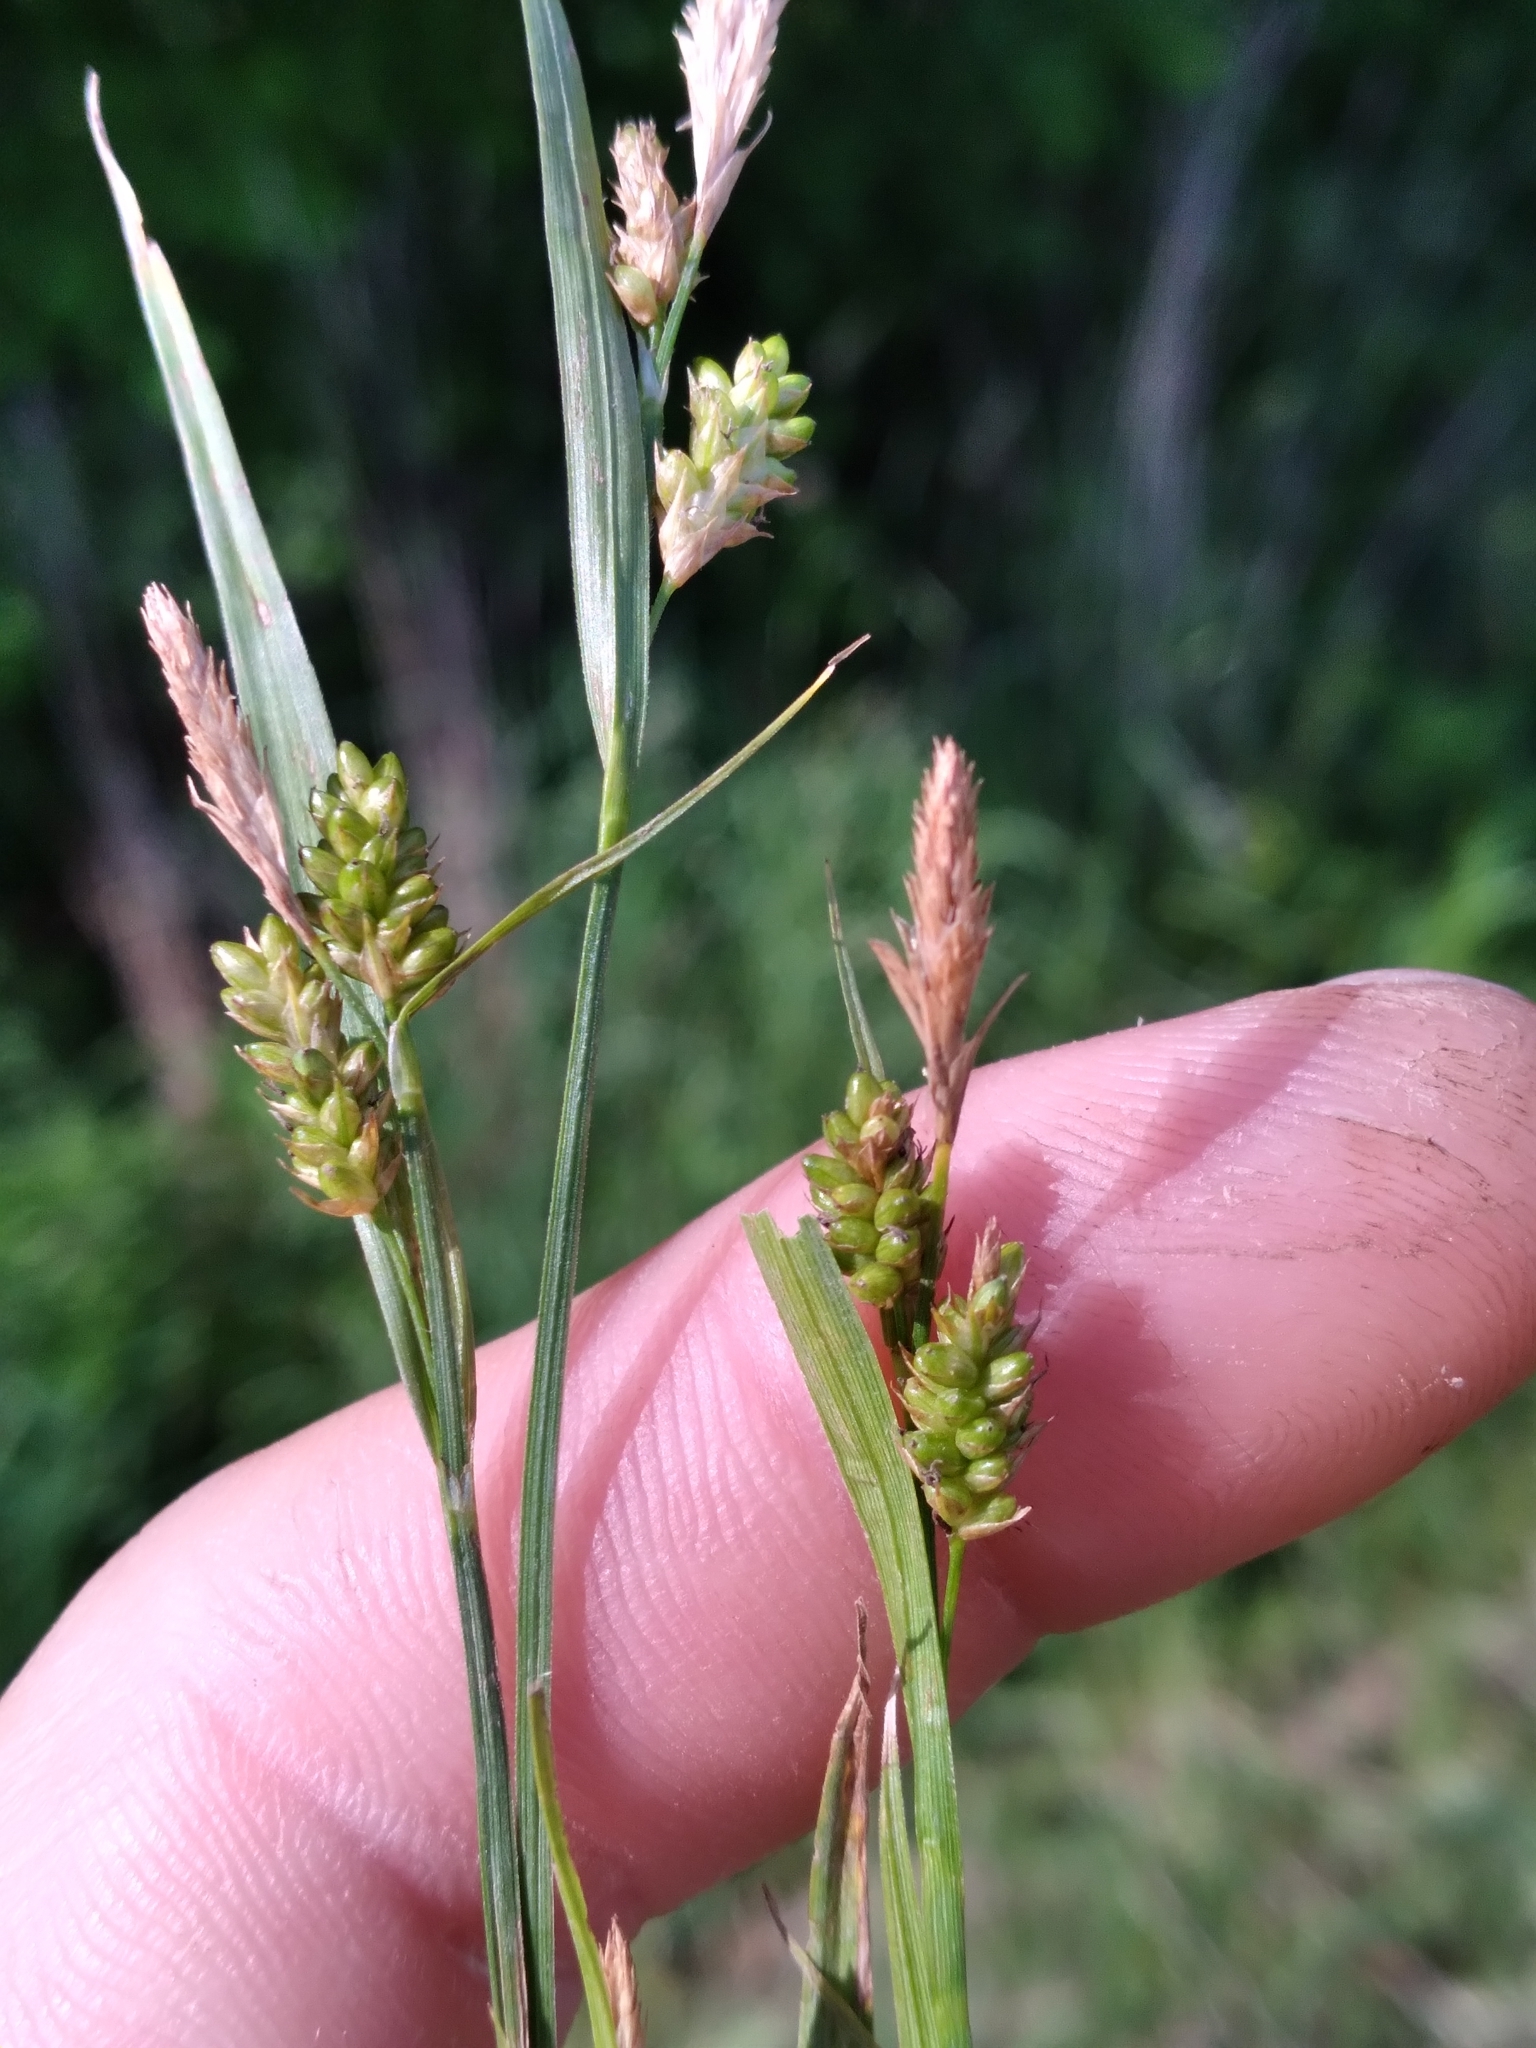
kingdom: Plantae
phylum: Tracheophyta
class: Liliopsida
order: Poales
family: Cyperaceae
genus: Carex
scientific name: Carex pallescens
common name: Pale sedge
